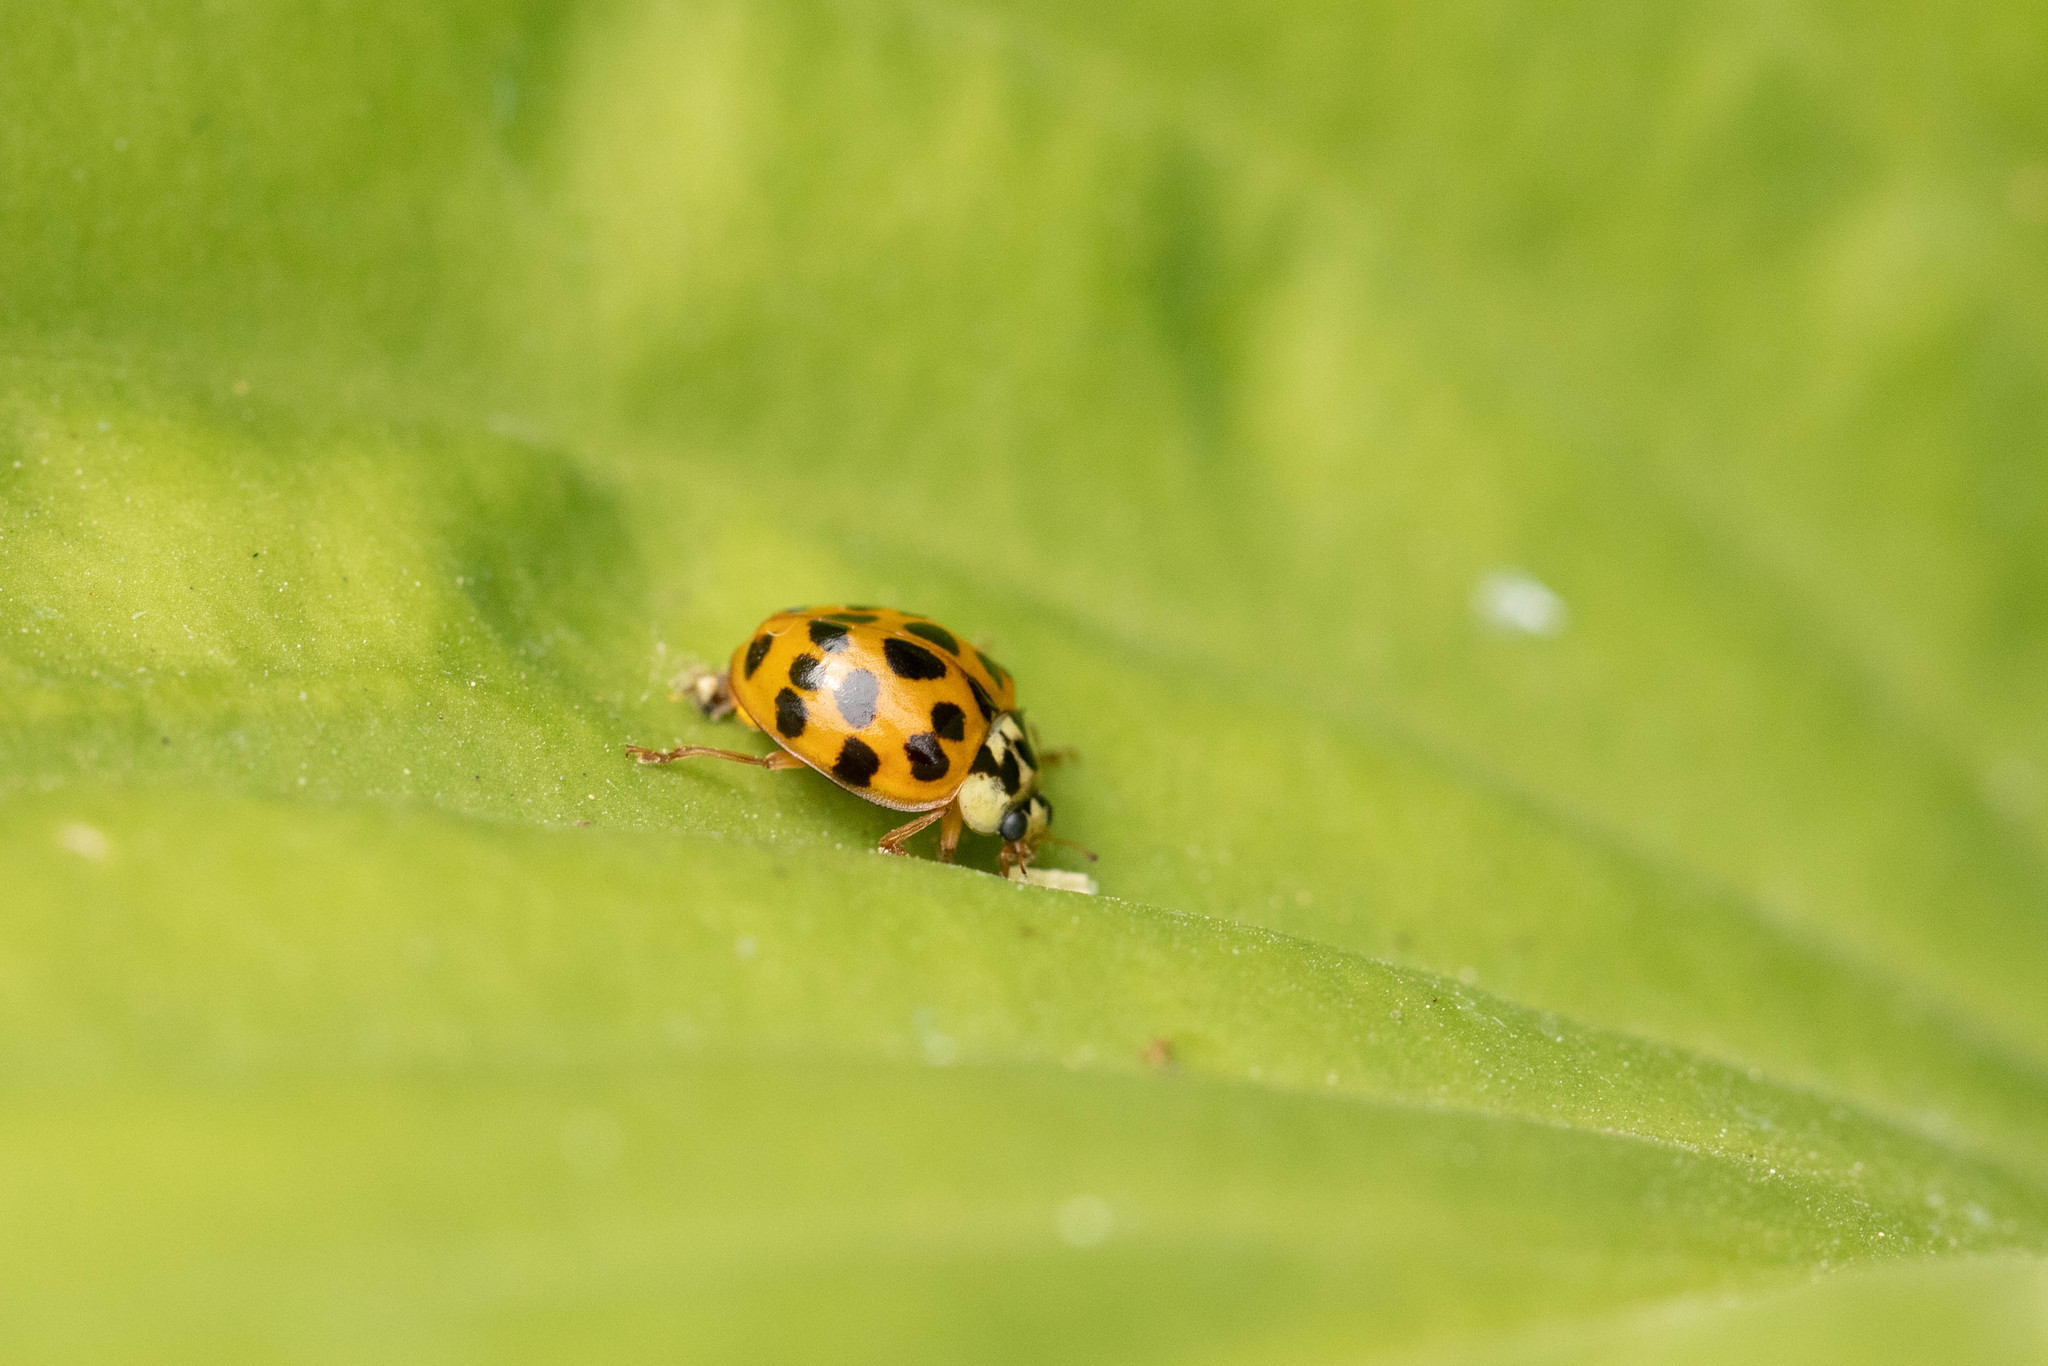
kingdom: Animalia
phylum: Arthropoda
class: Insecta
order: Coleoptera
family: Coccinellidae
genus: Harmonia
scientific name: Harmonia axyridis
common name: Harlequin ladybird
